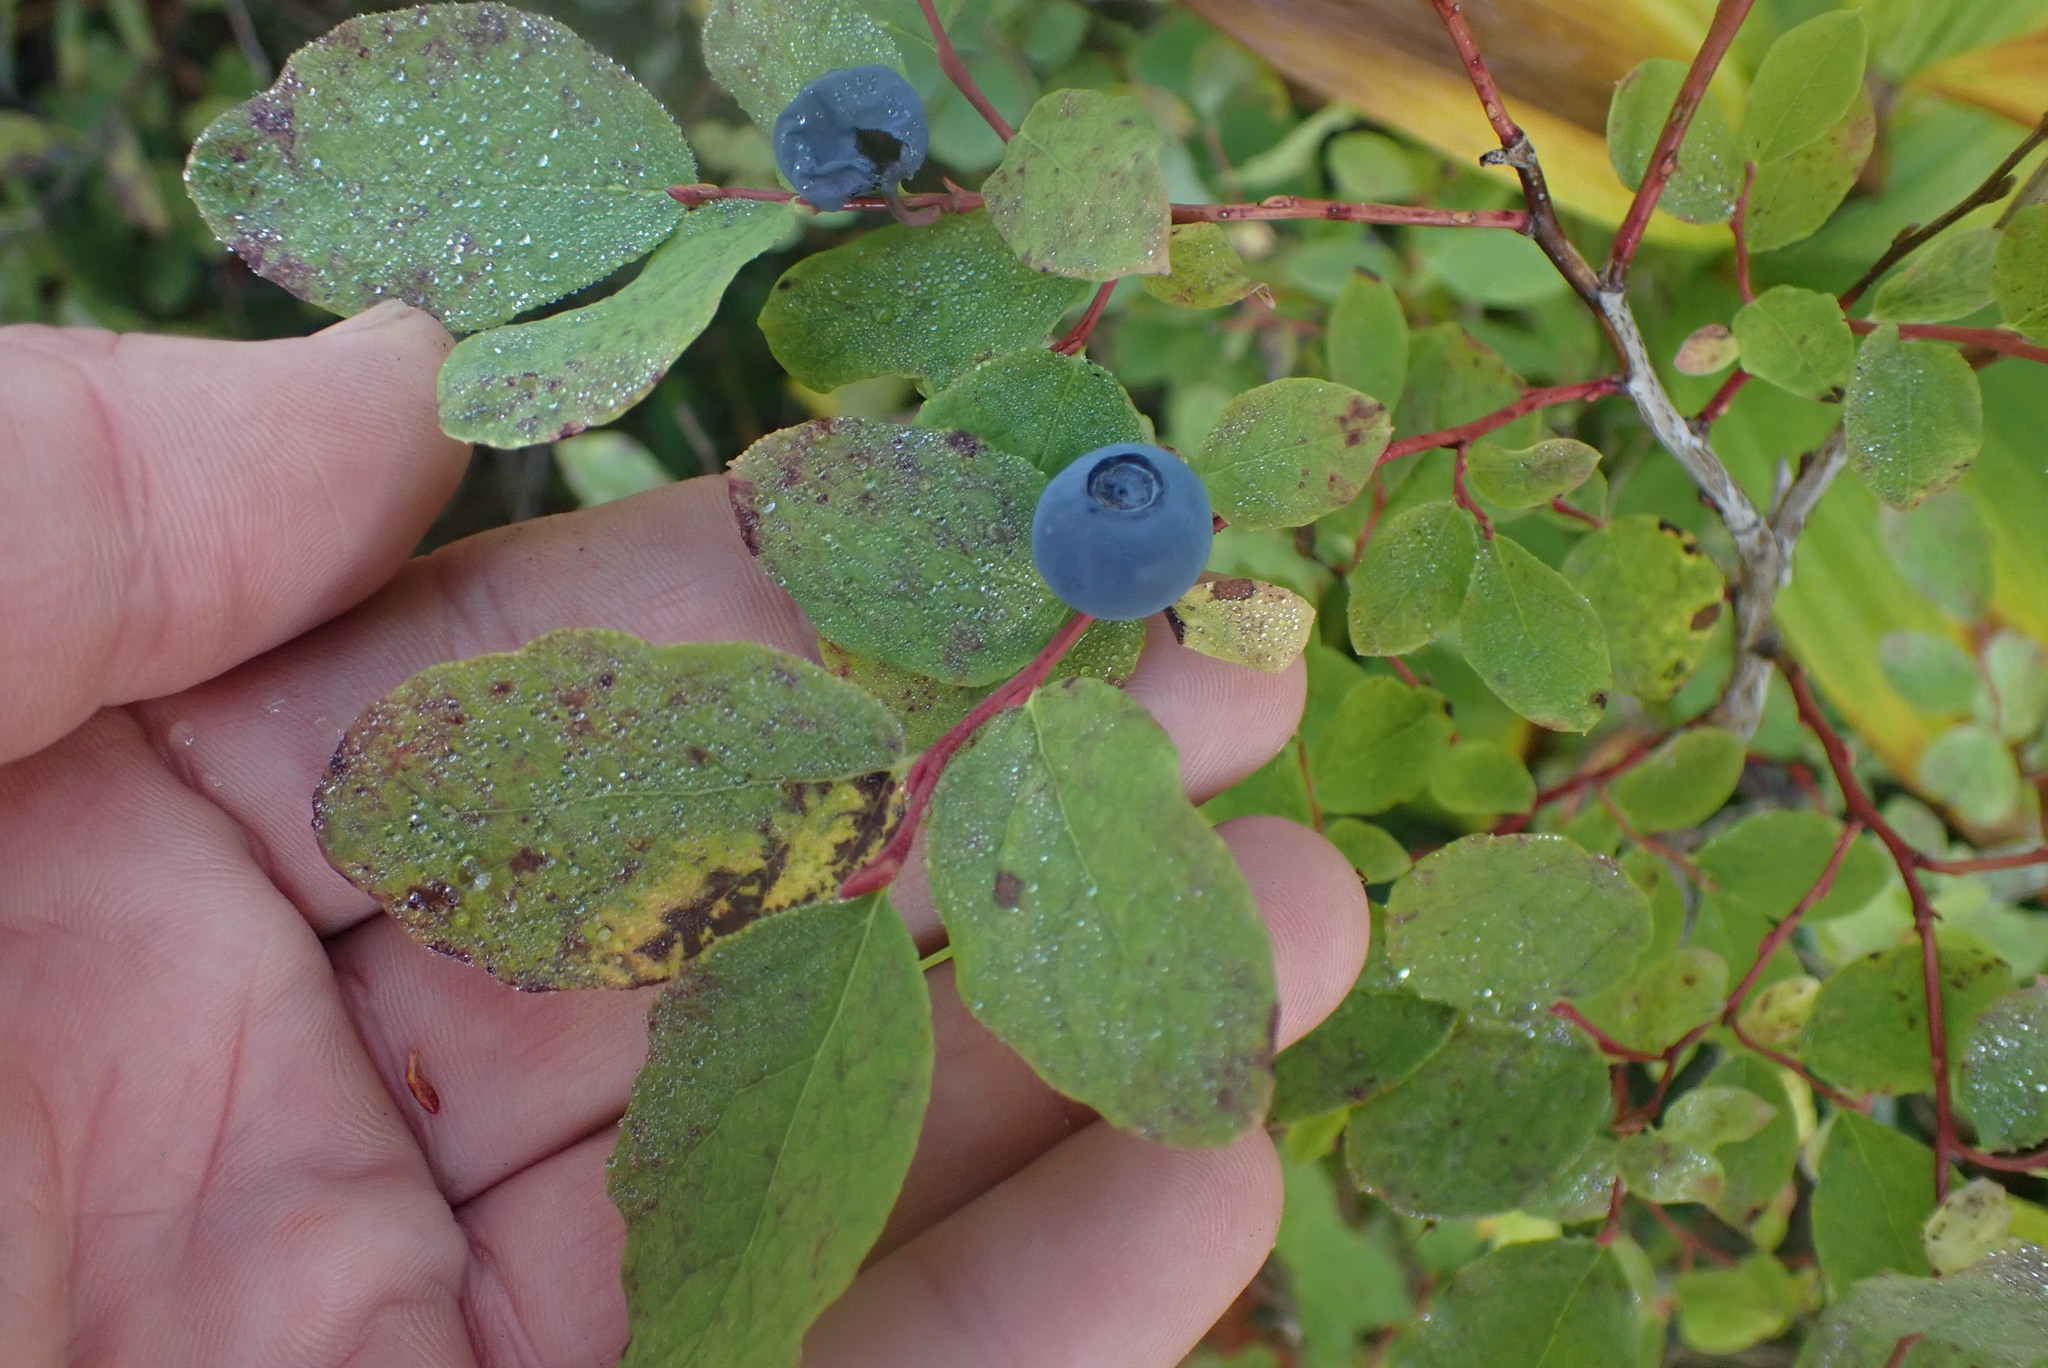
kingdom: Plantae
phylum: Tracheophyta
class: Magnoliopsida
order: Ericales
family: Ericaceae
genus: Vaccinium
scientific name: Vaccinium ovalifolium
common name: Early blueberry
